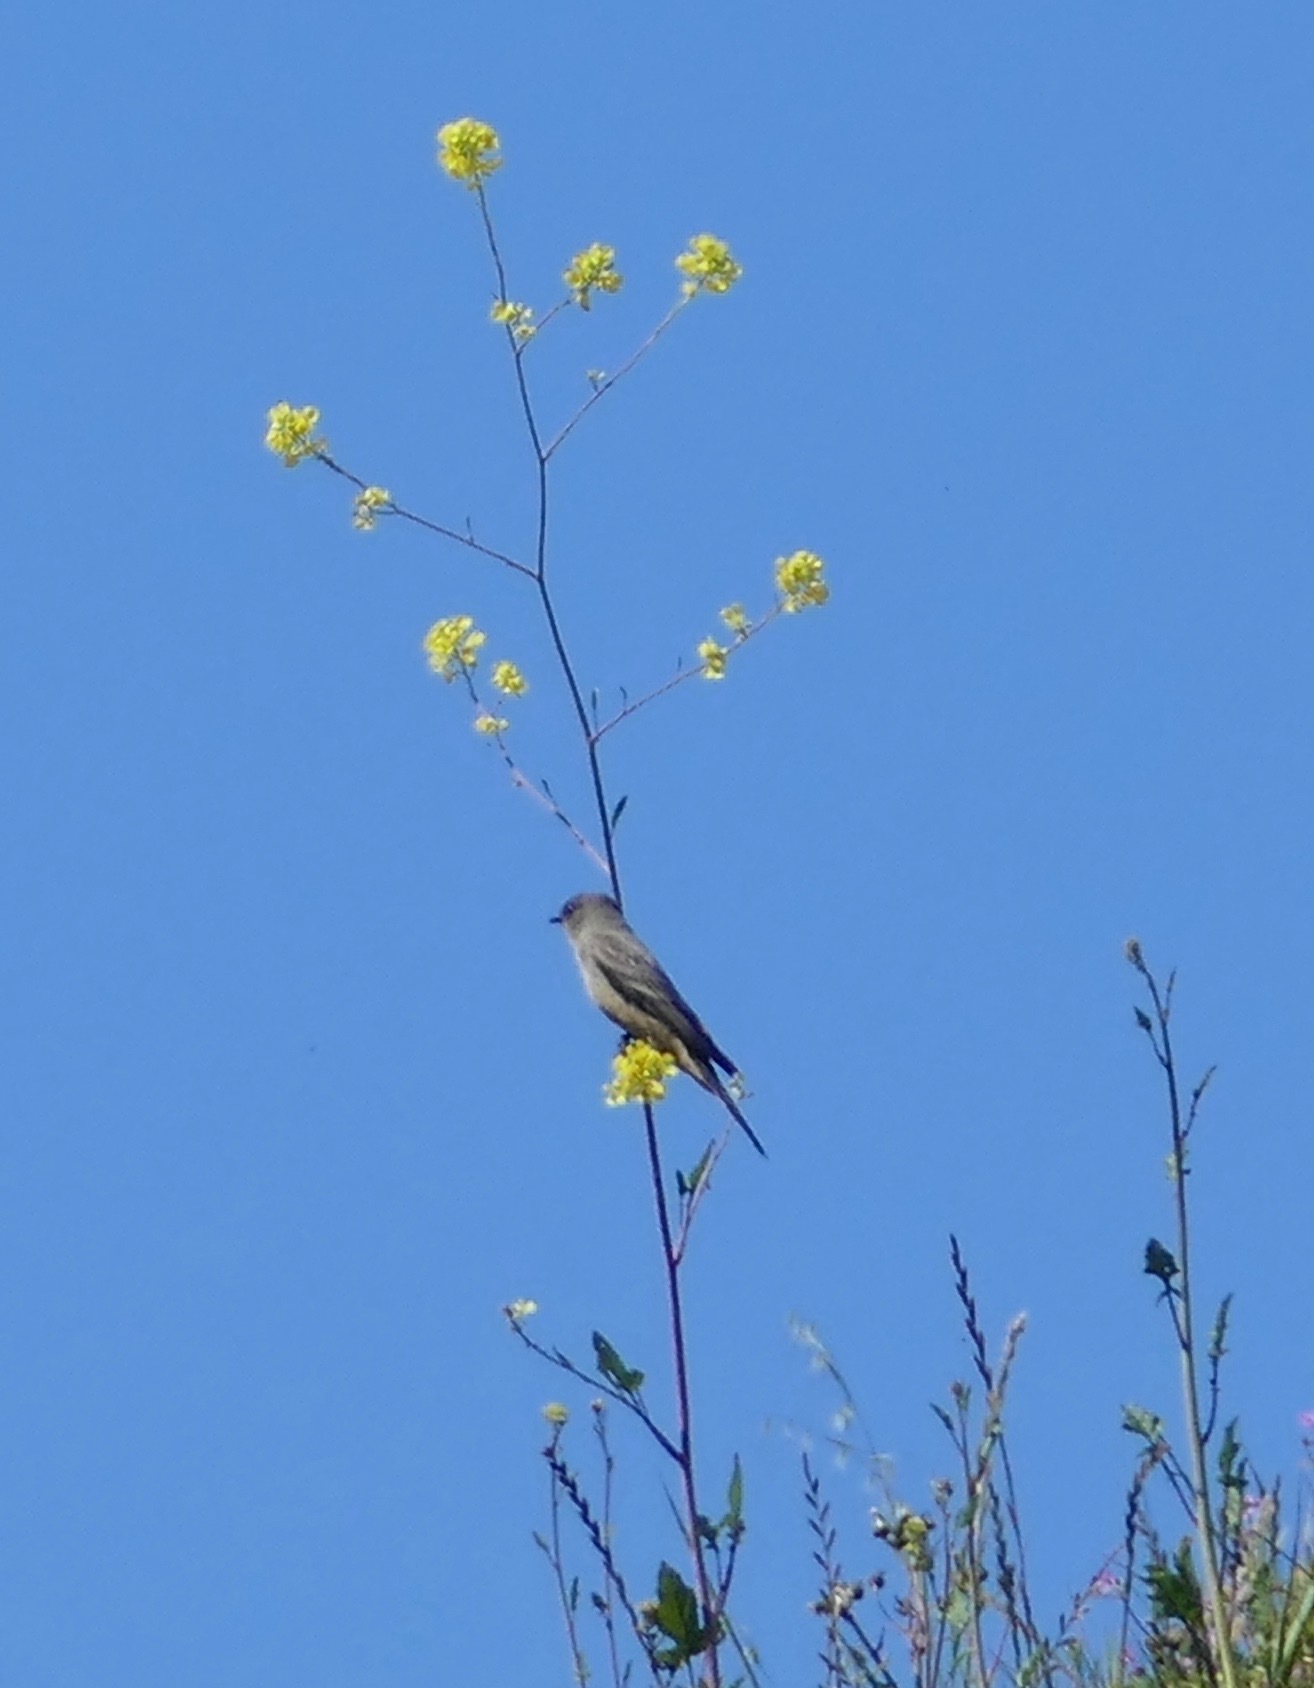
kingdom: Animalia
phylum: Chordata
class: Aves
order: Passeriformes
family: Tyrannidae
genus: Sayornis
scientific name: Sayornis saya
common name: Say's phoebe
